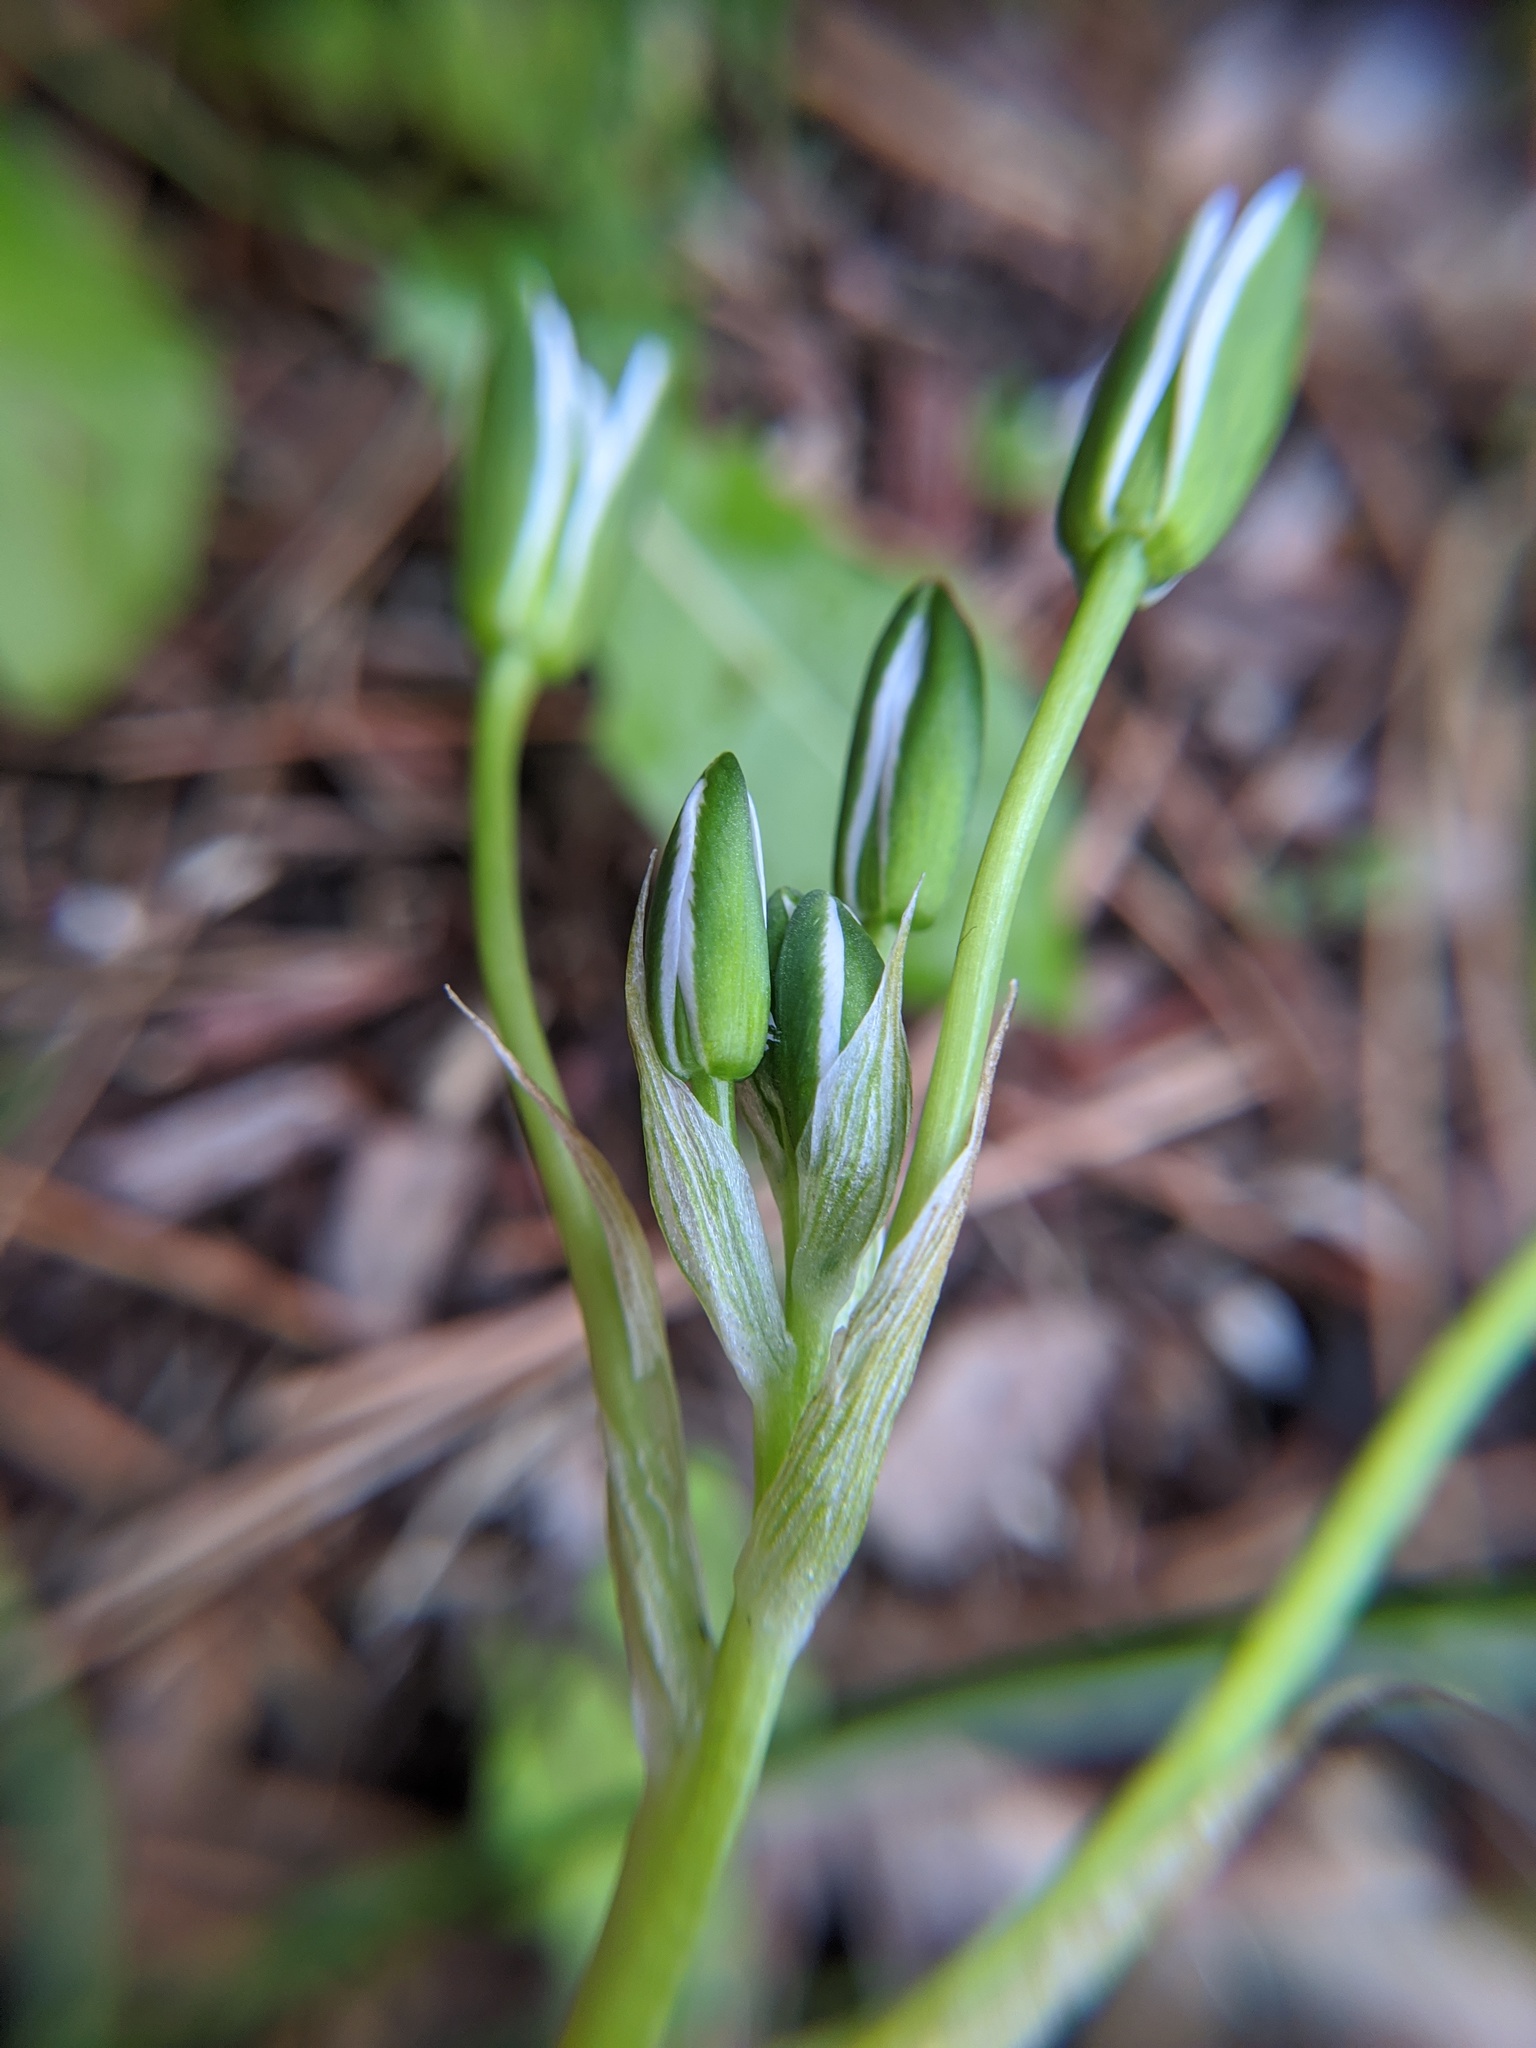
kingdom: Plantae
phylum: Tracheophyta
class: Liliopsida
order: Asparagales
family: Asparagaceae
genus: Ornithogalum
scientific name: Ornithogalum umbellatum
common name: Garden star-of-bethlehem
